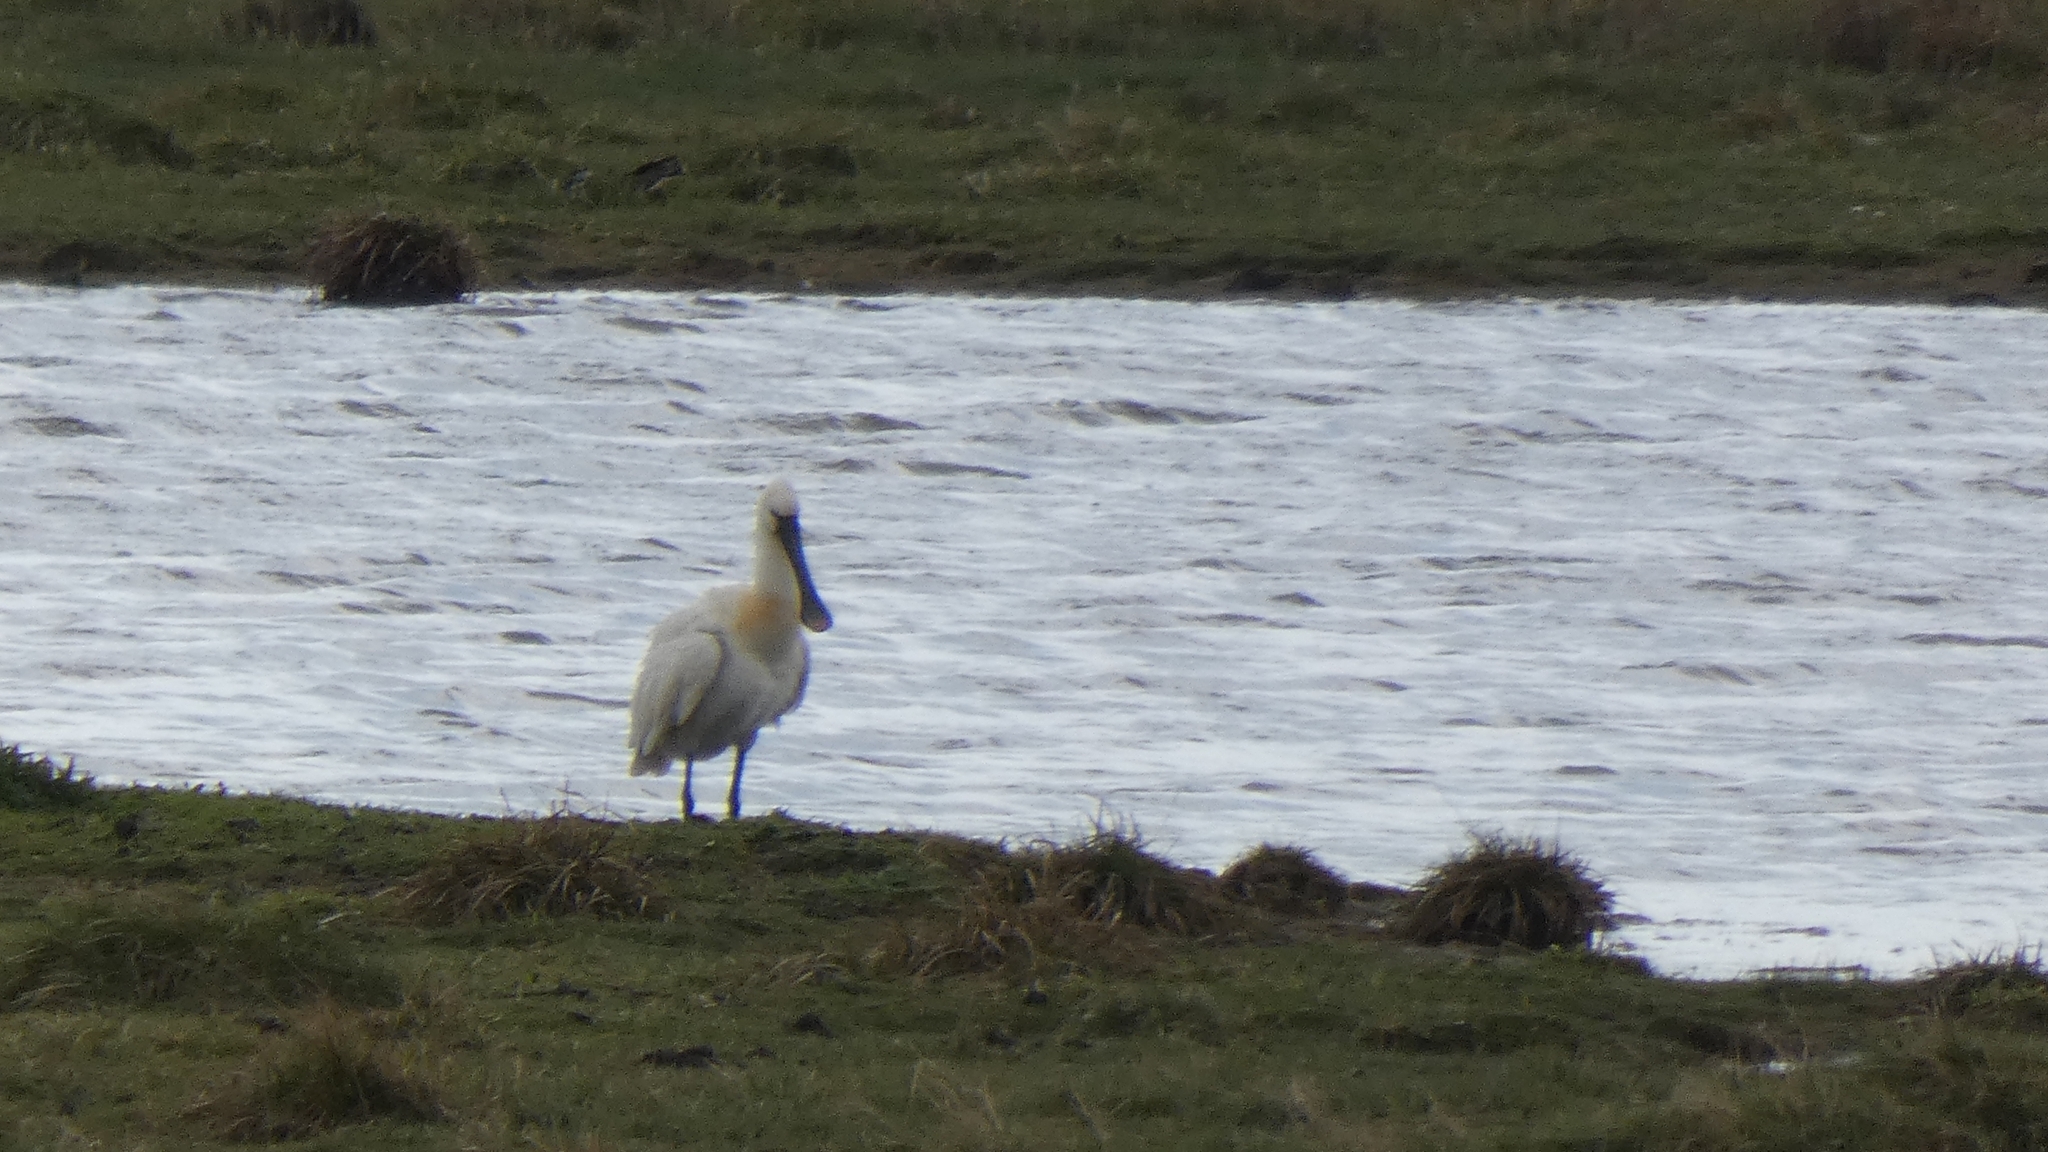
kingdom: Animalia
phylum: Chordata
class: Aves
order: Pelecaniformes
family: Threskiornithidae
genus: Platalea
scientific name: Platalea leucorodia
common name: Eurasian spoonbill
